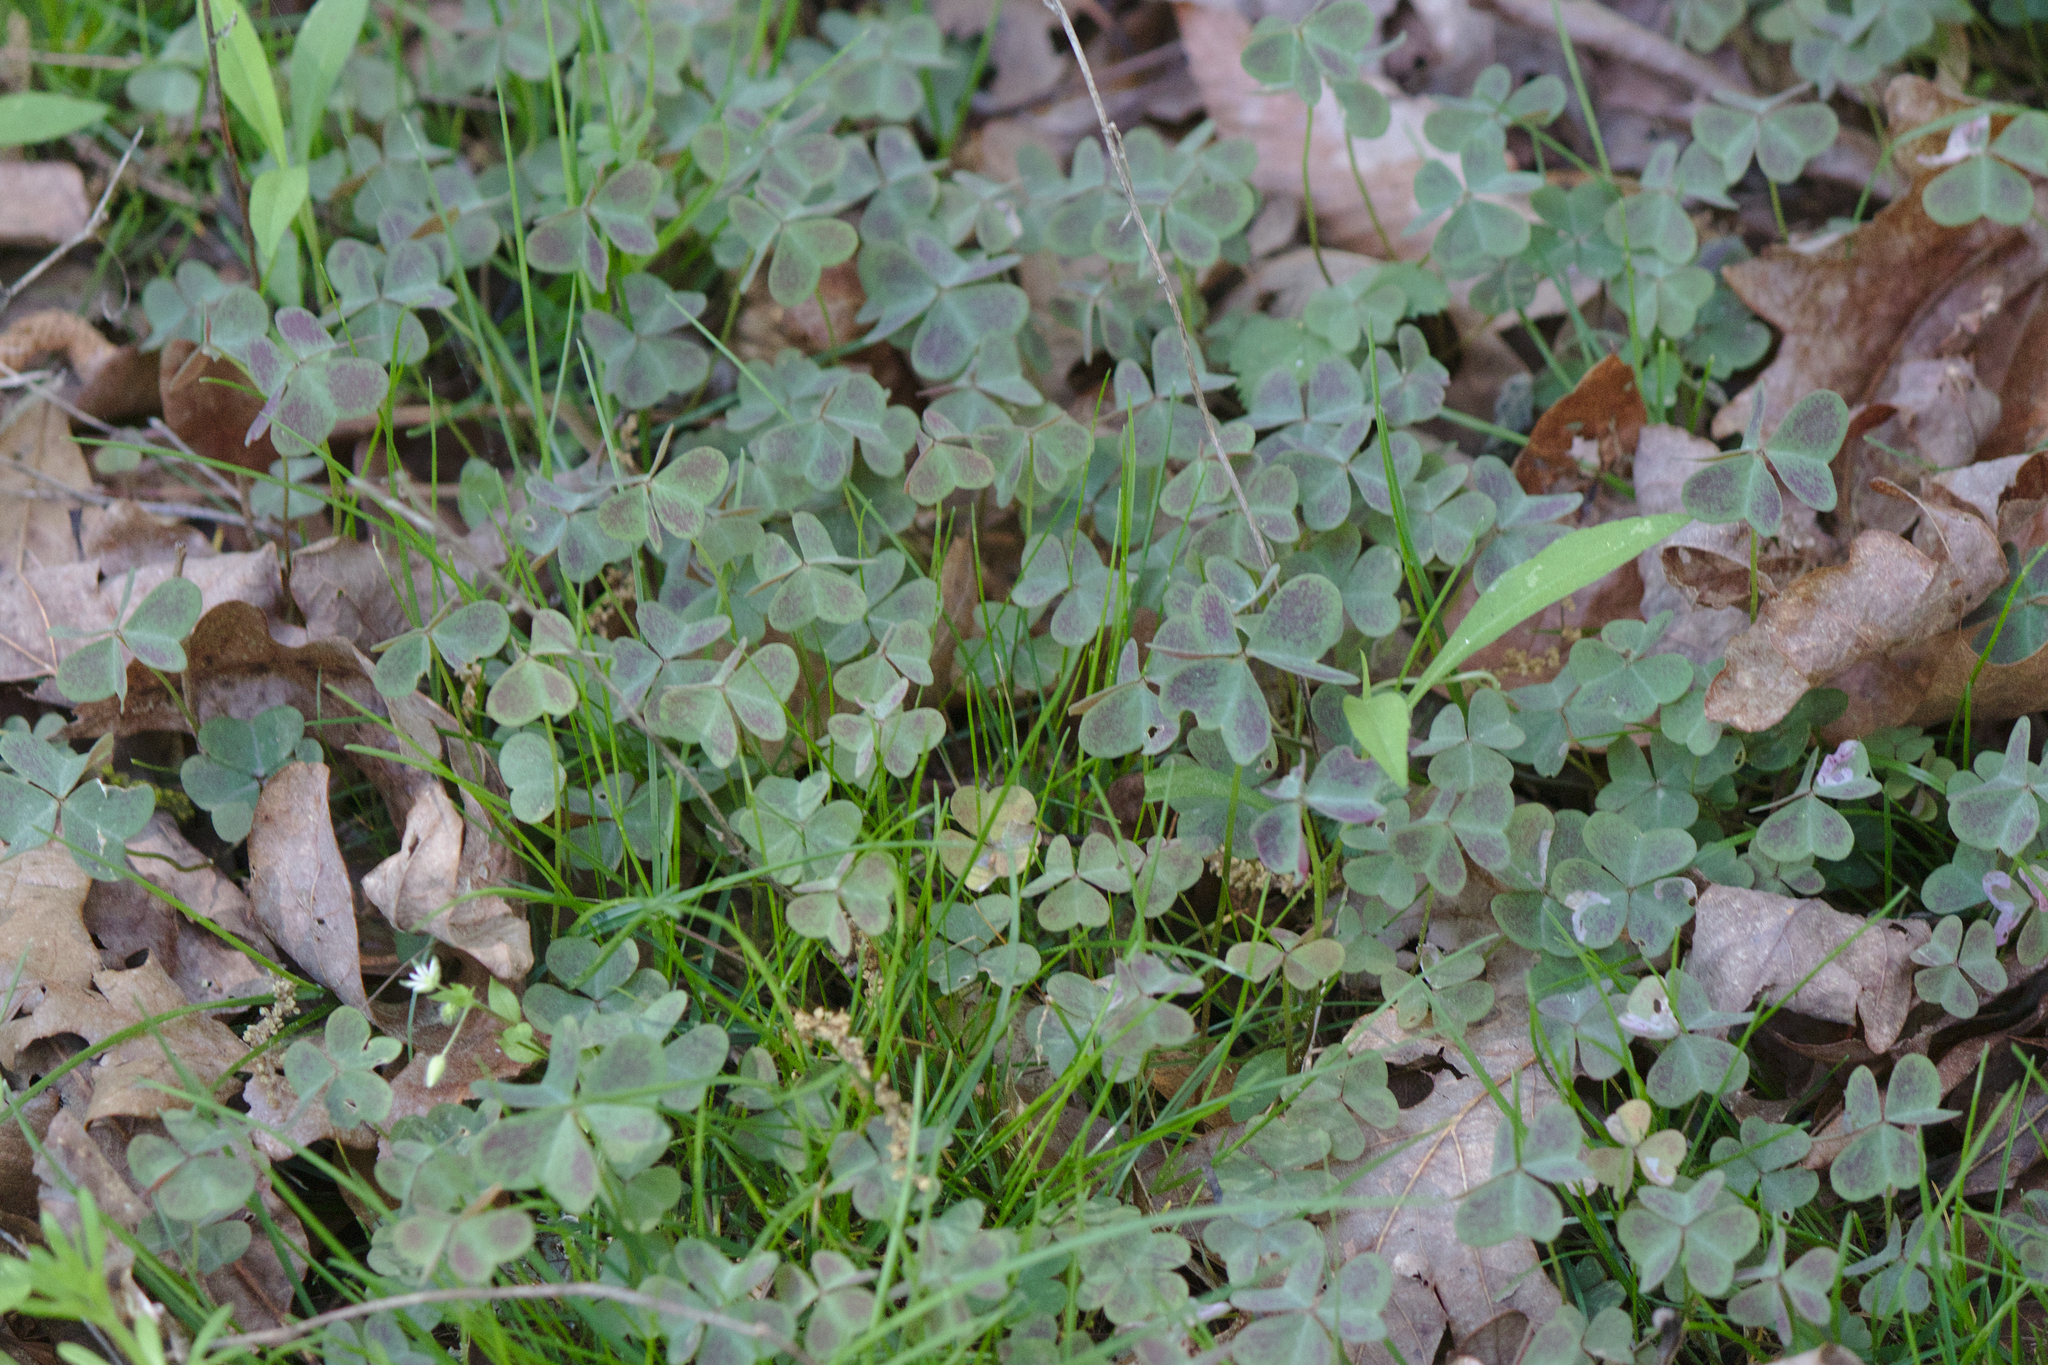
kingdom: Plantae
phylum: Tracheophyta
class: Magnoliopsida
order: Oxalidales
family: Oxalidaceae
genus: Oxalis
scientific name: Oxalis violacea
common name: Violet wood-sorrel
